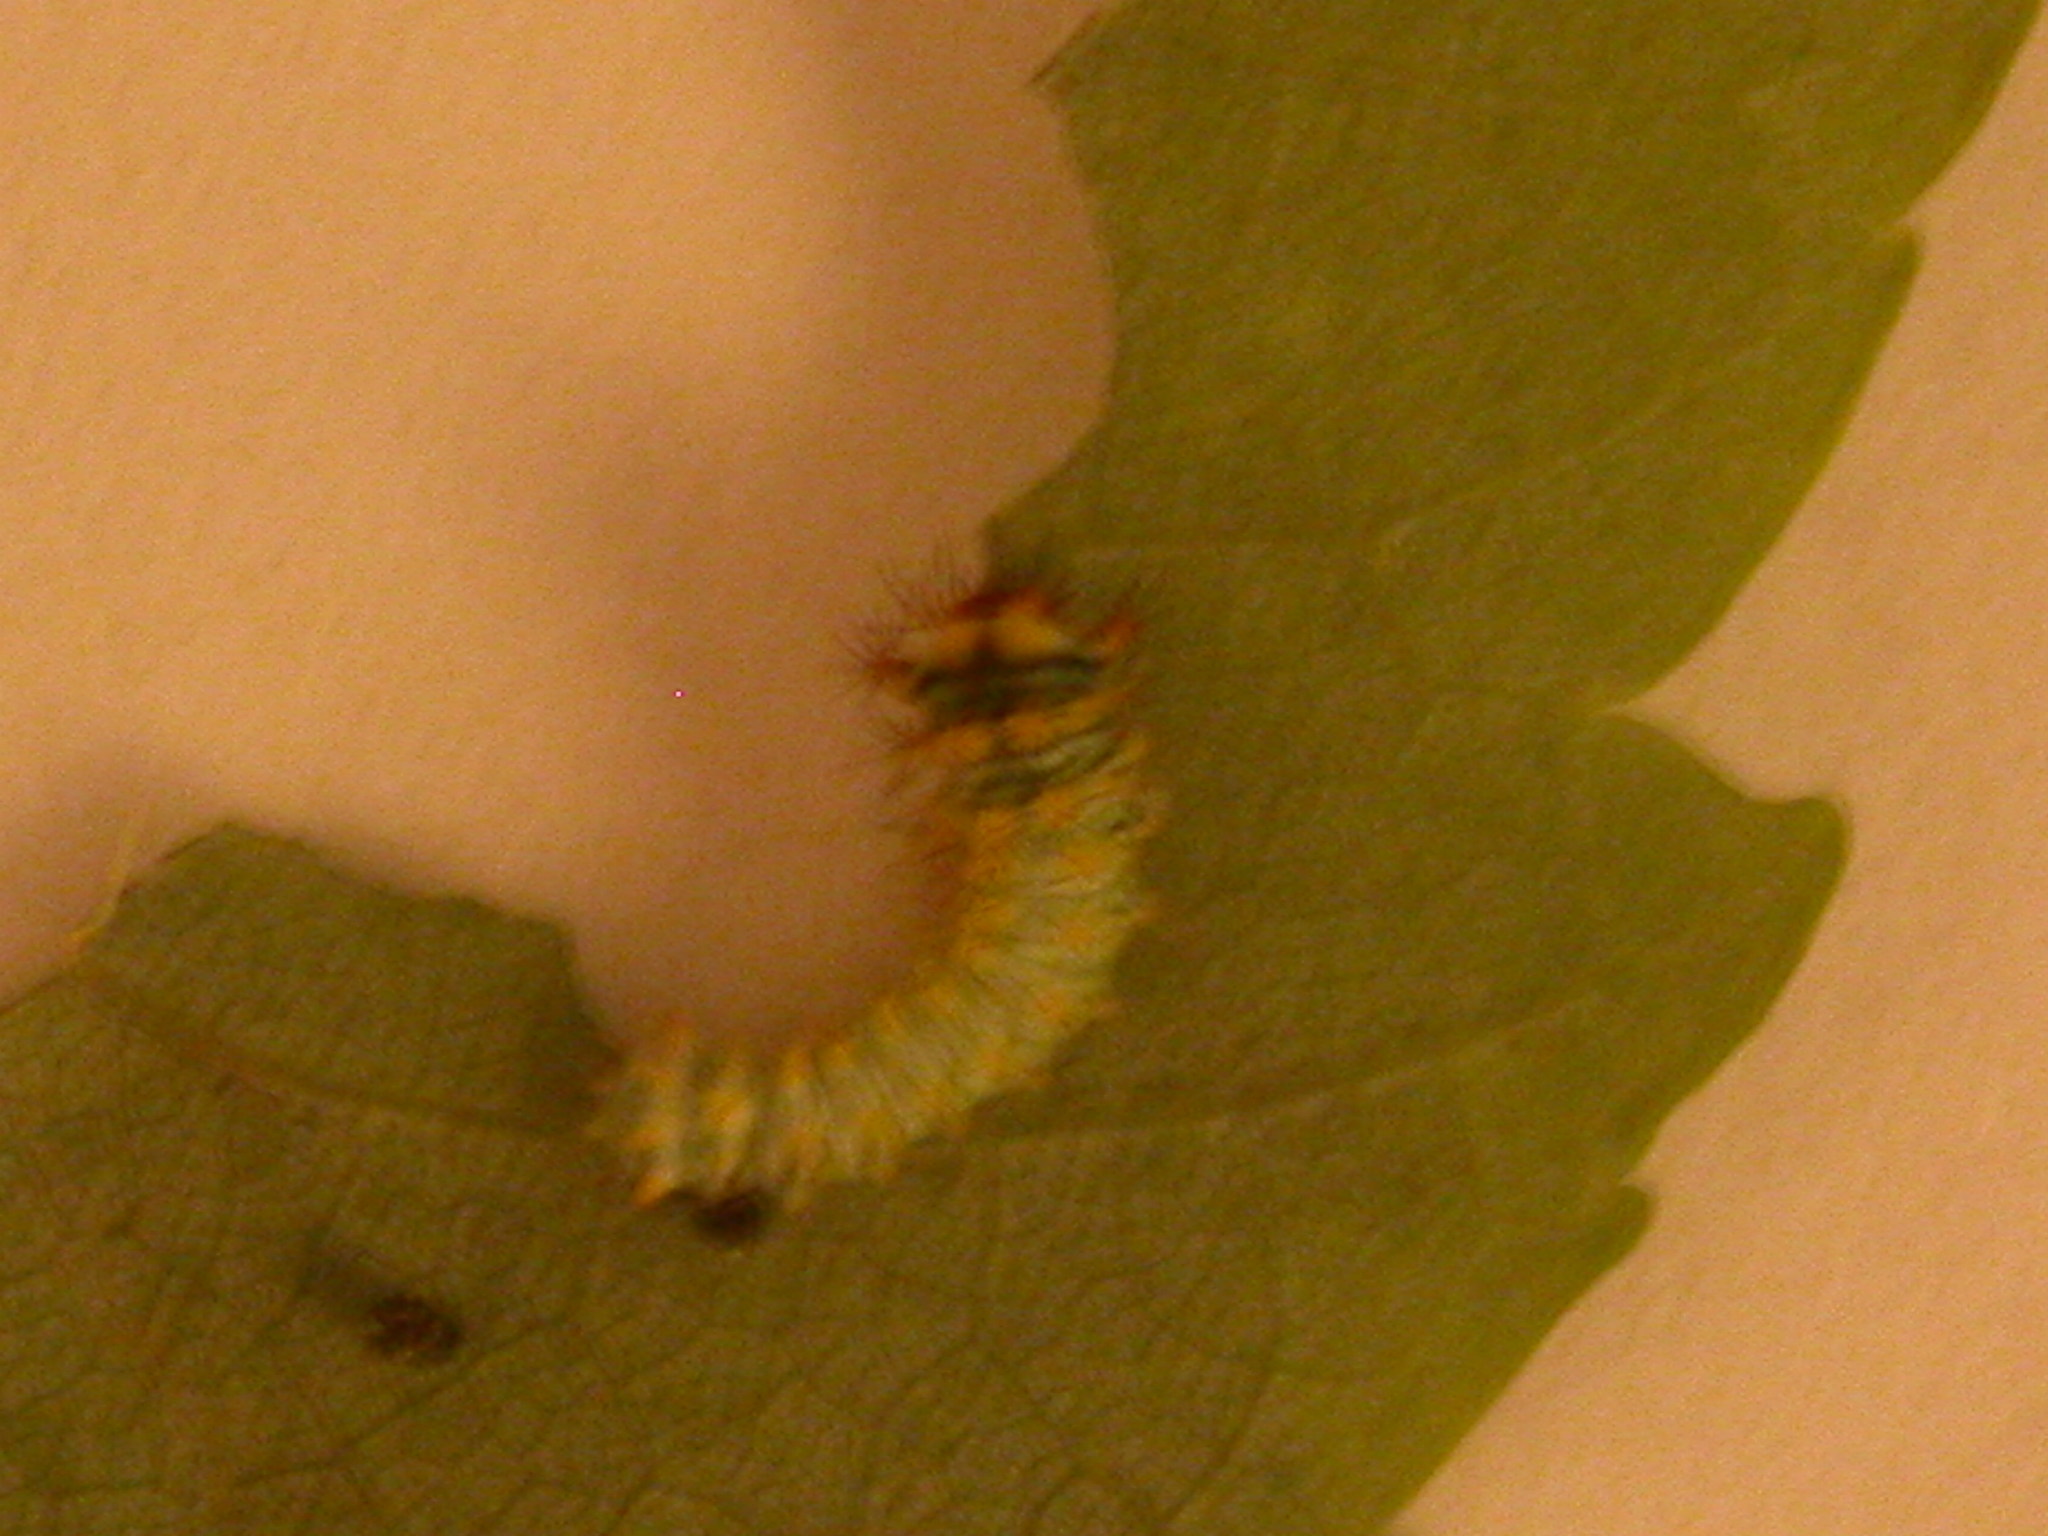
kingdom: Animalia
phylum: Arthropoda
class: Insecta
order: Lepidoptera
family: Saturniidae
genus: Antheraea
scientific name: Antheraea polyphemus
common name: Polyphemus moth
